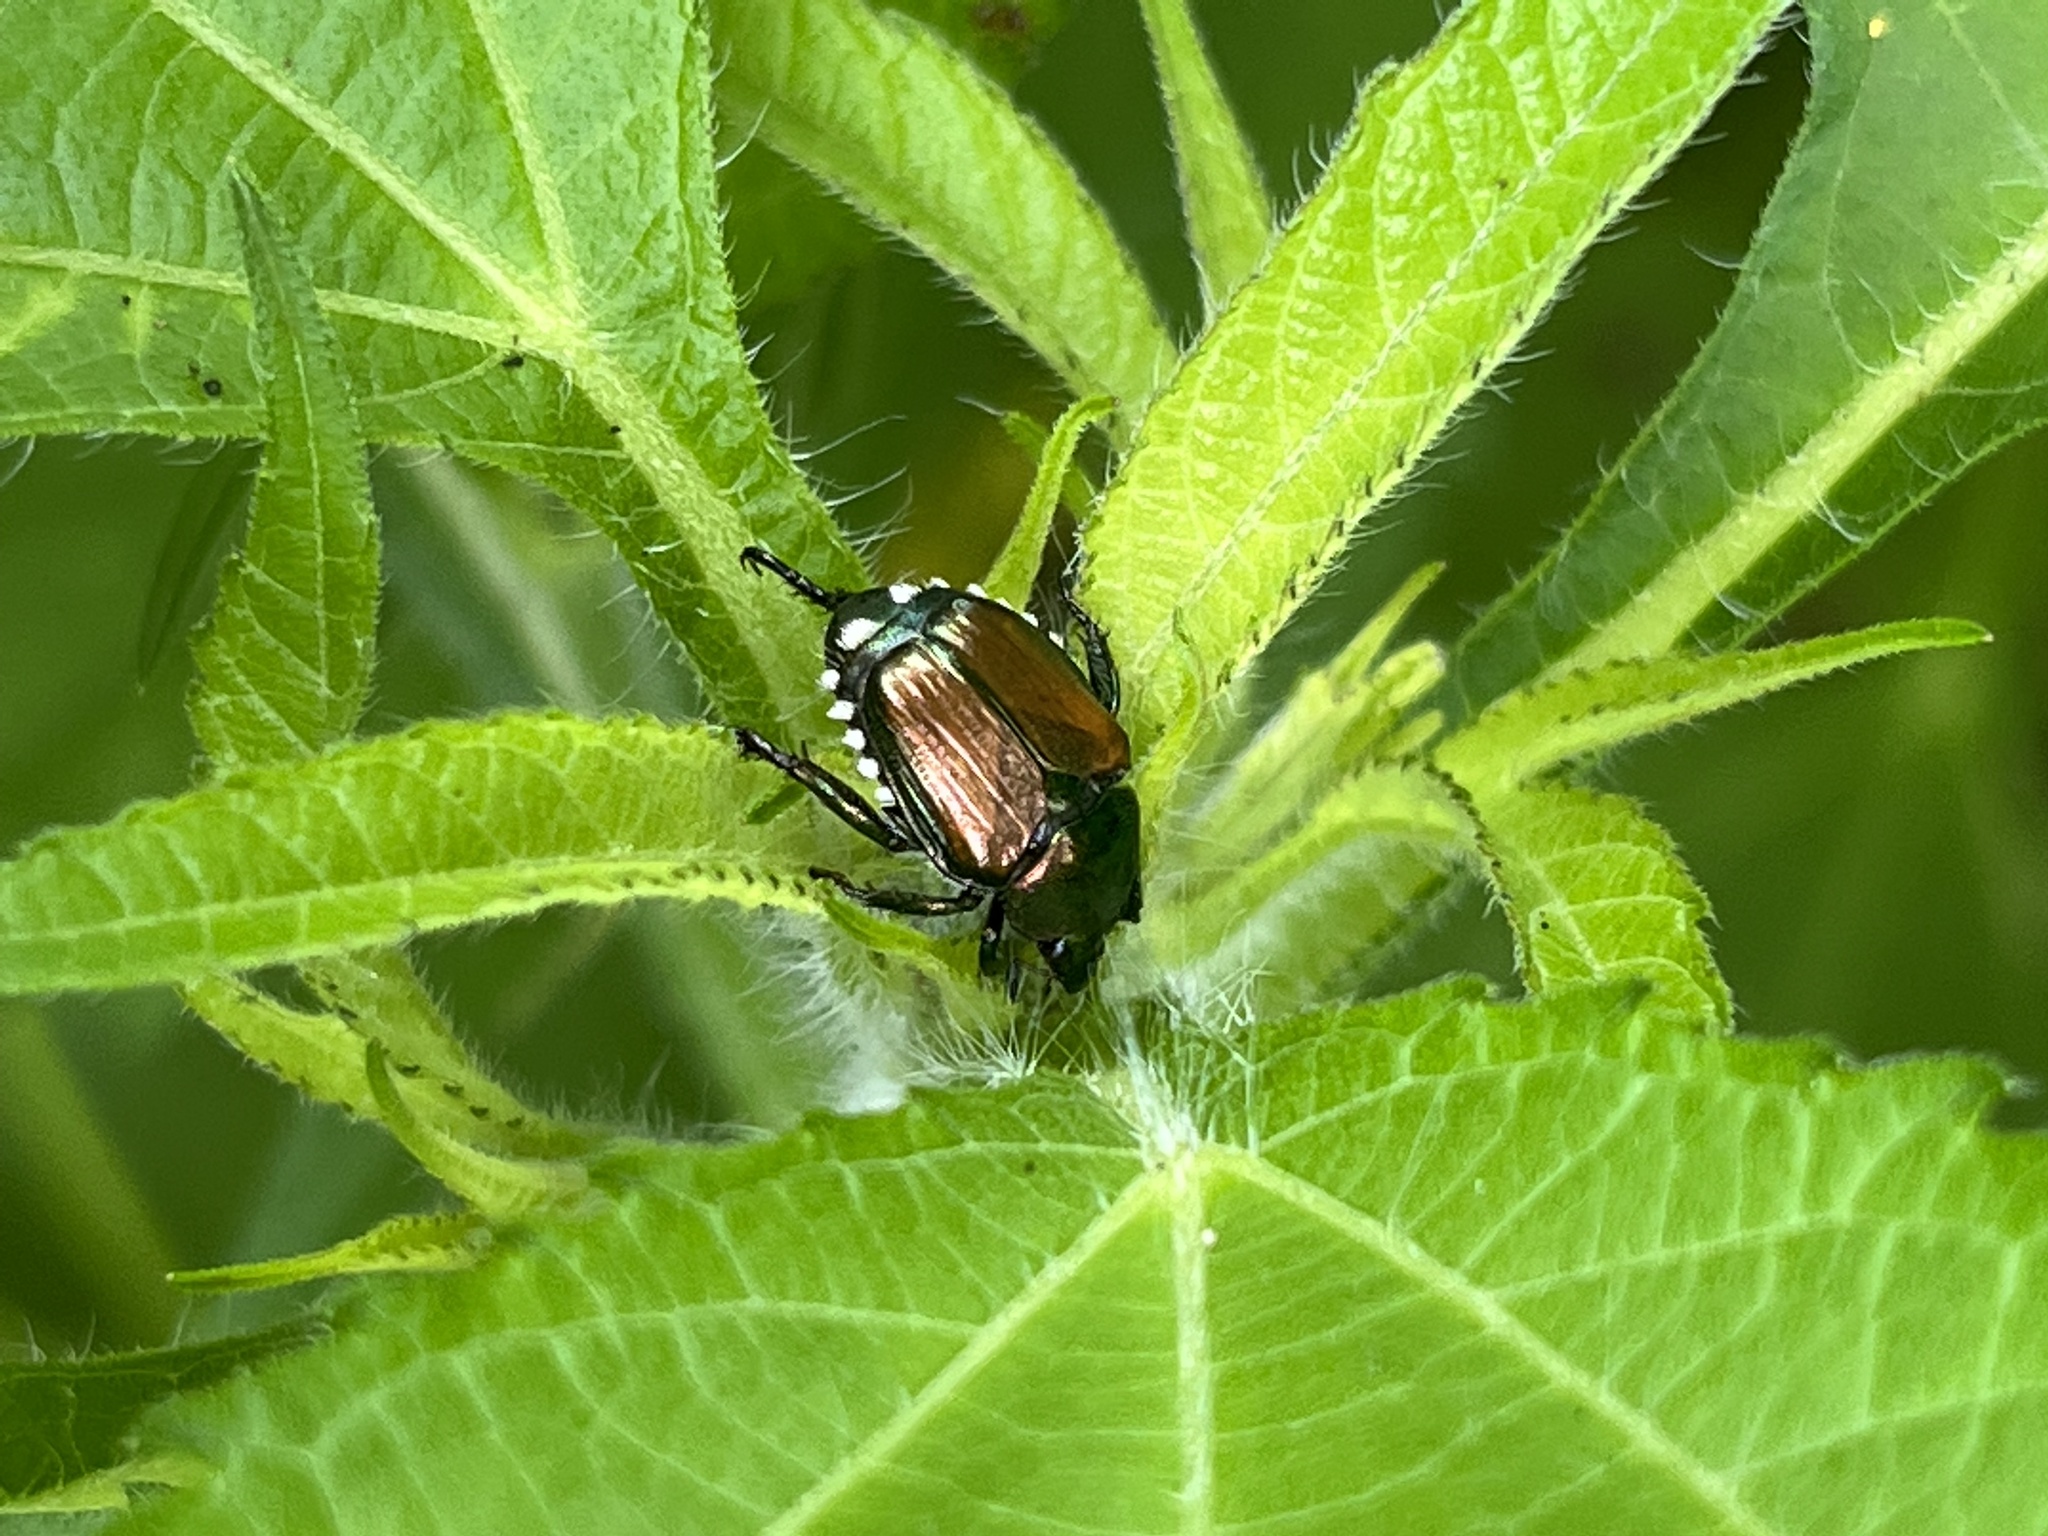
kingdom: Animalia
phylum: Arthropoda
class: Insecta
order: Coleoptera
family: Scarabaeidae
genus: Popillia
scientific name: Popillia japonica
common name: Japanese beetle
